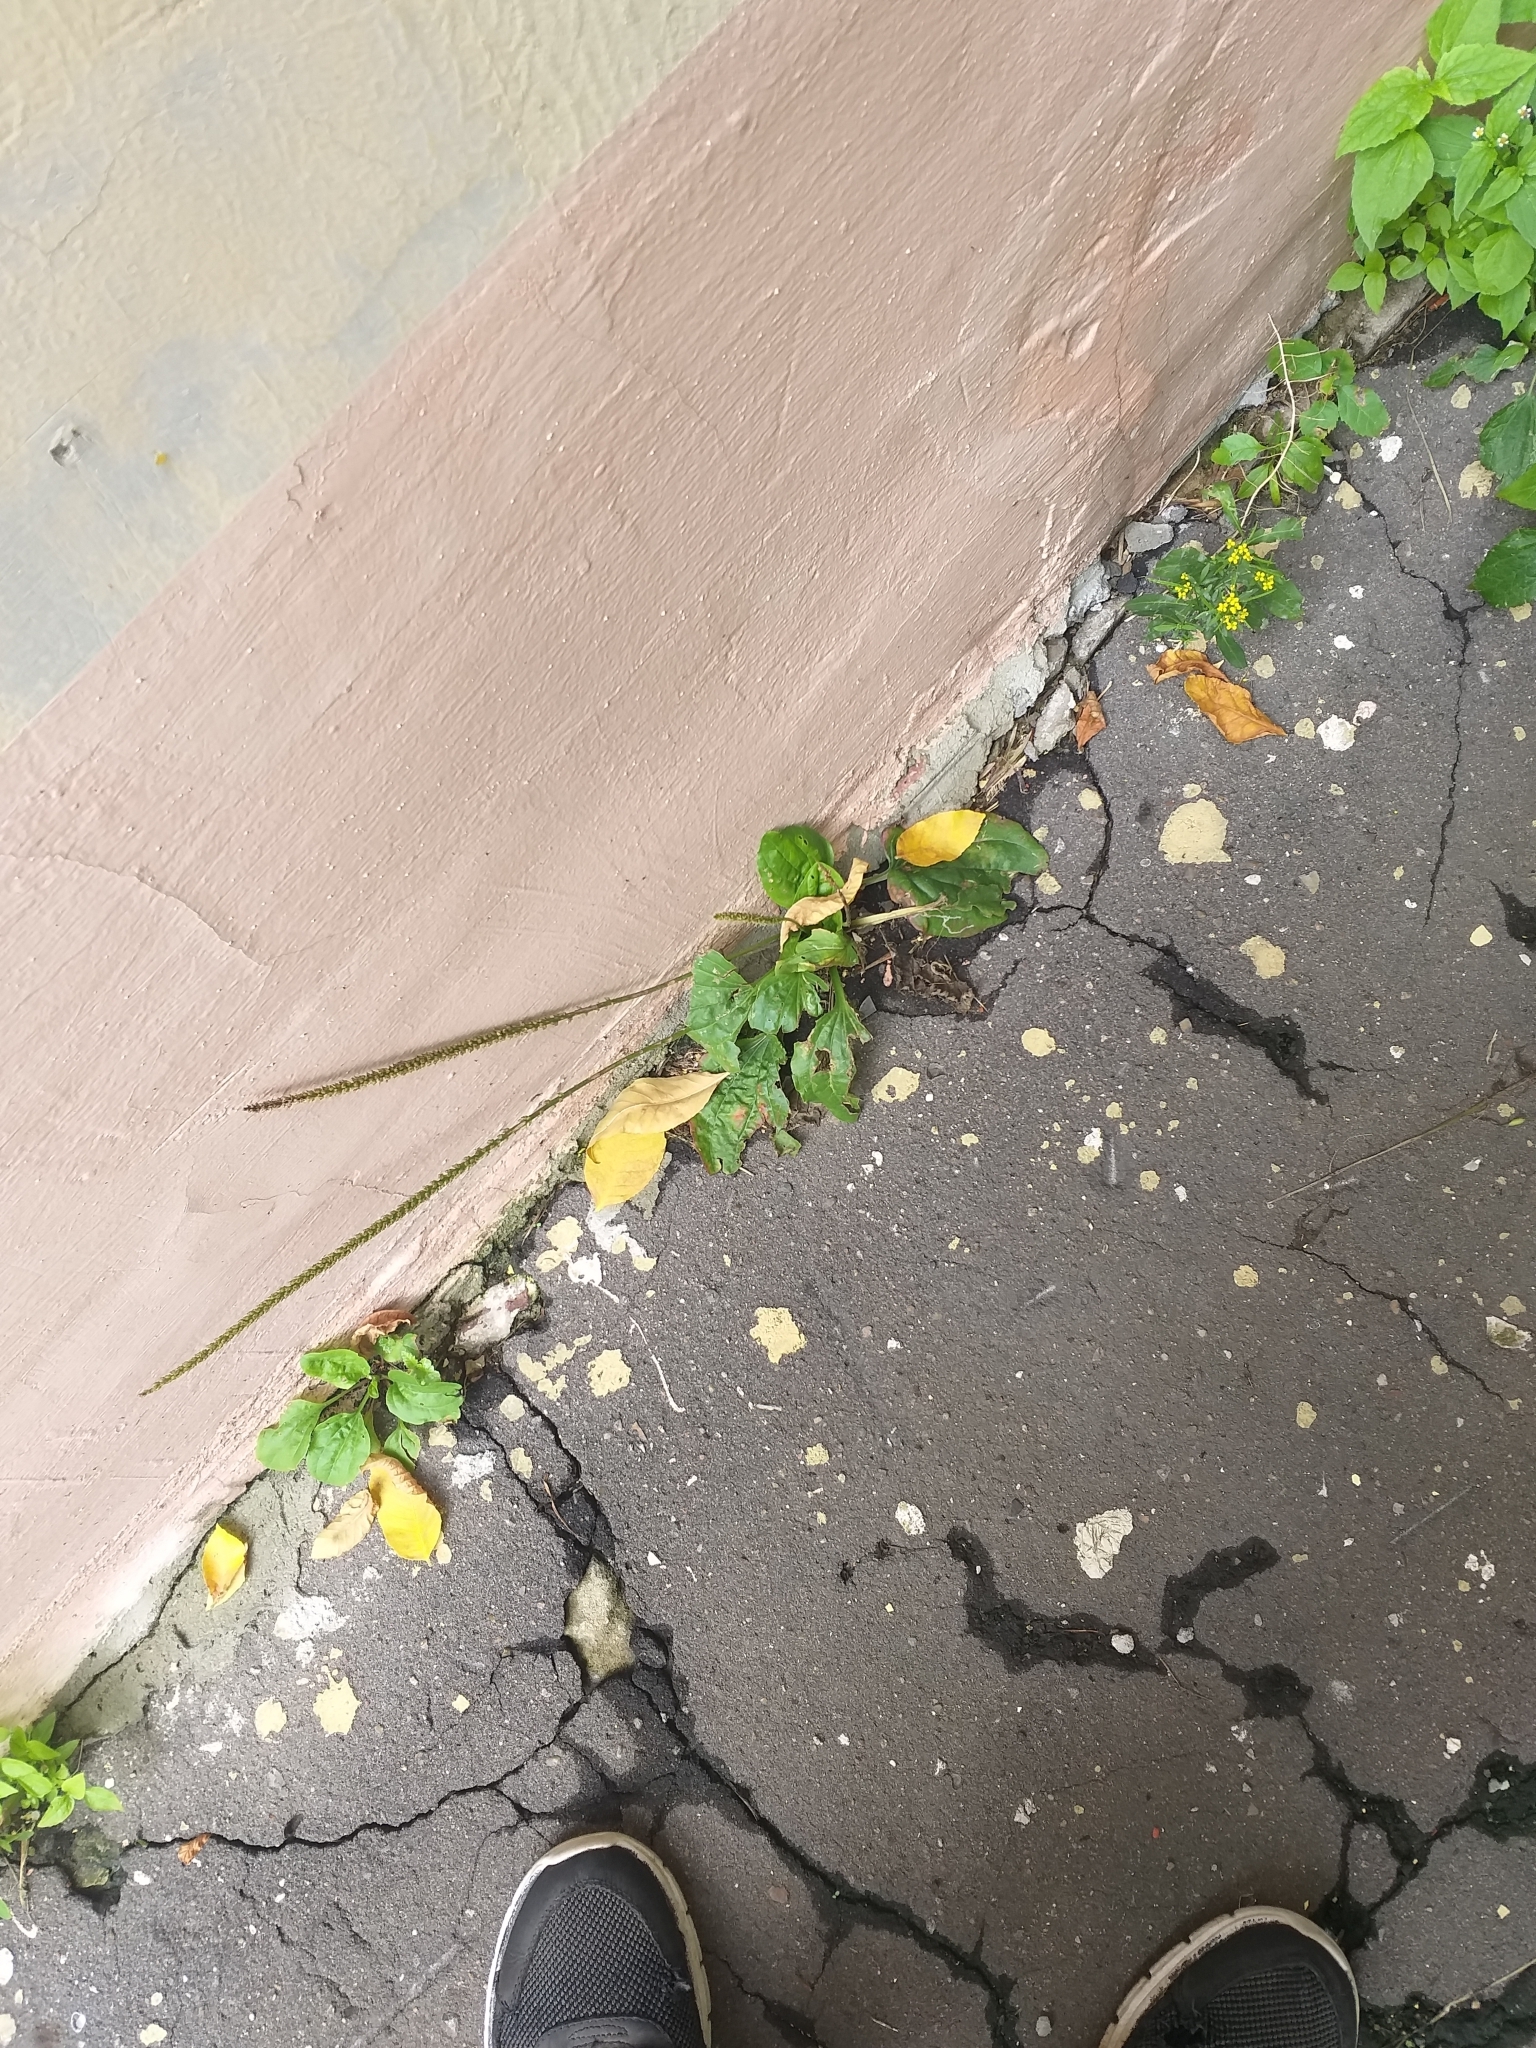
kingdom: Plantae
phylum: Tracheophyta
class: Magnoliopsida
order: Lamiales
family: Plantaginaceae
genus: Plantago
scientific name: Plantago major
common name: Common plantain
